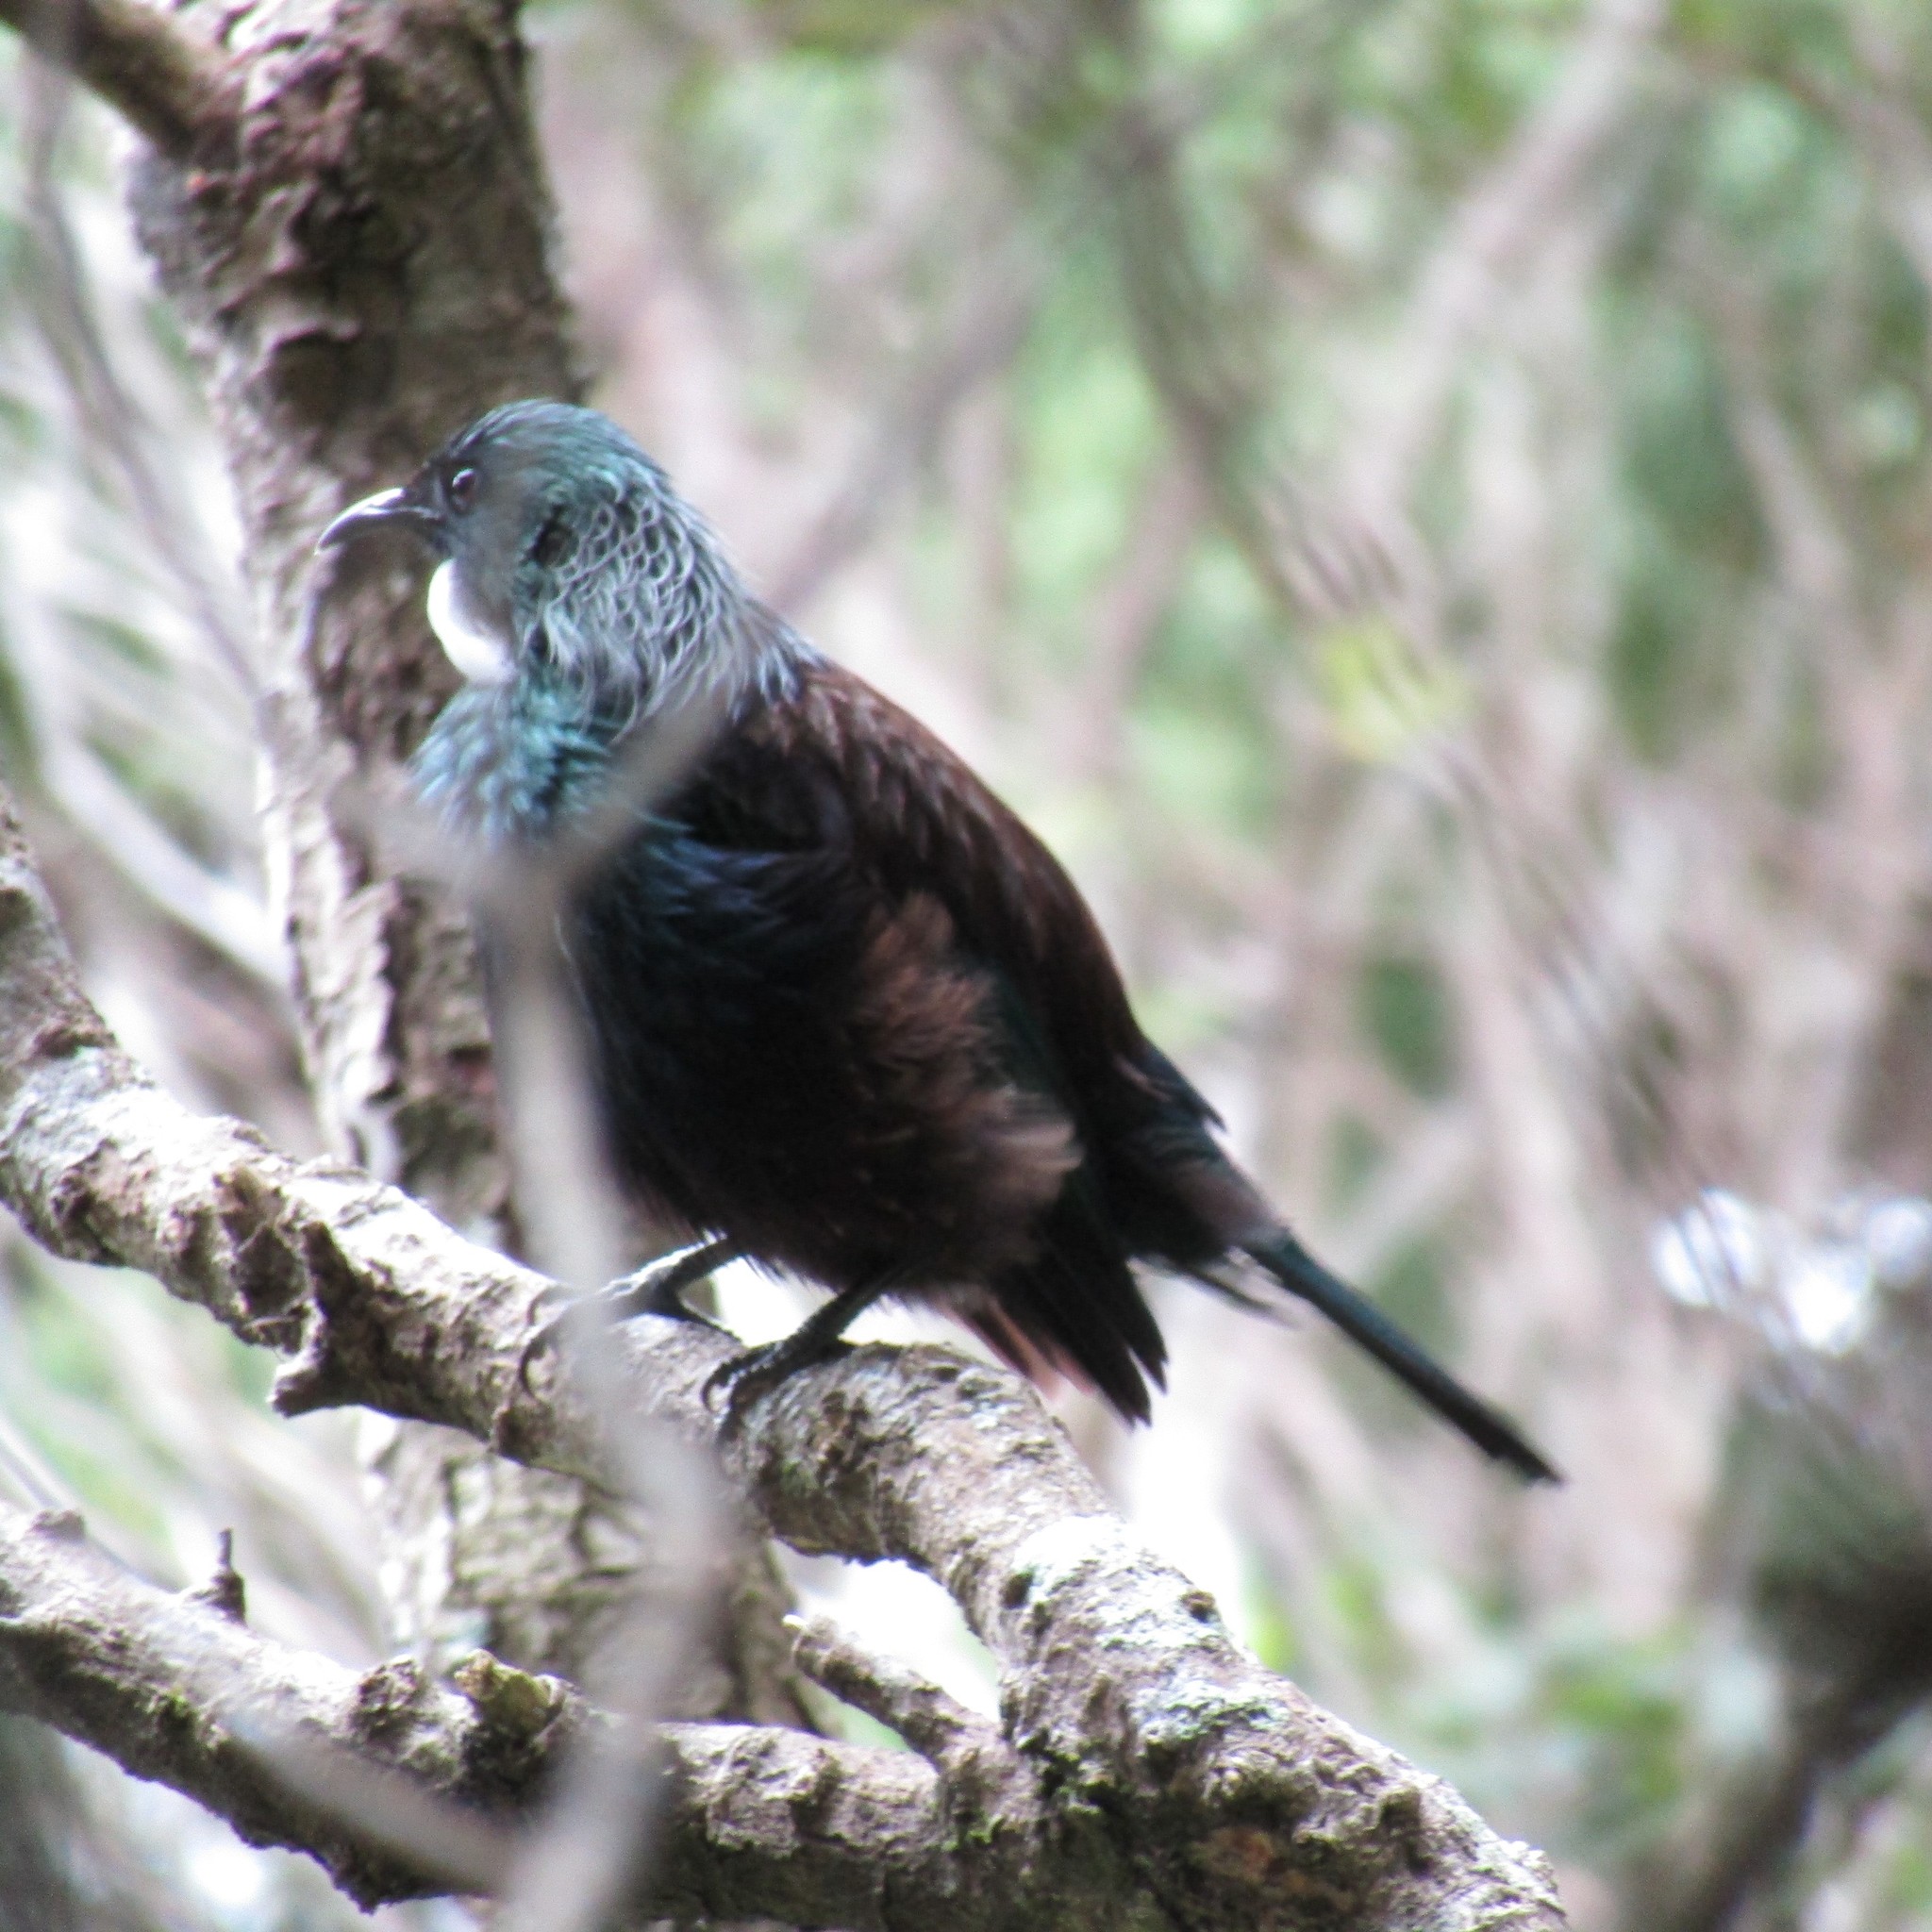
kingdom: Animalia
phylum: Chordata
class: Aves
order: Passeriformes
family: Meliphagidae
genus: Prosthemadera
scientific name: Prosthemadera novaeseelandiae
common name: Tui
